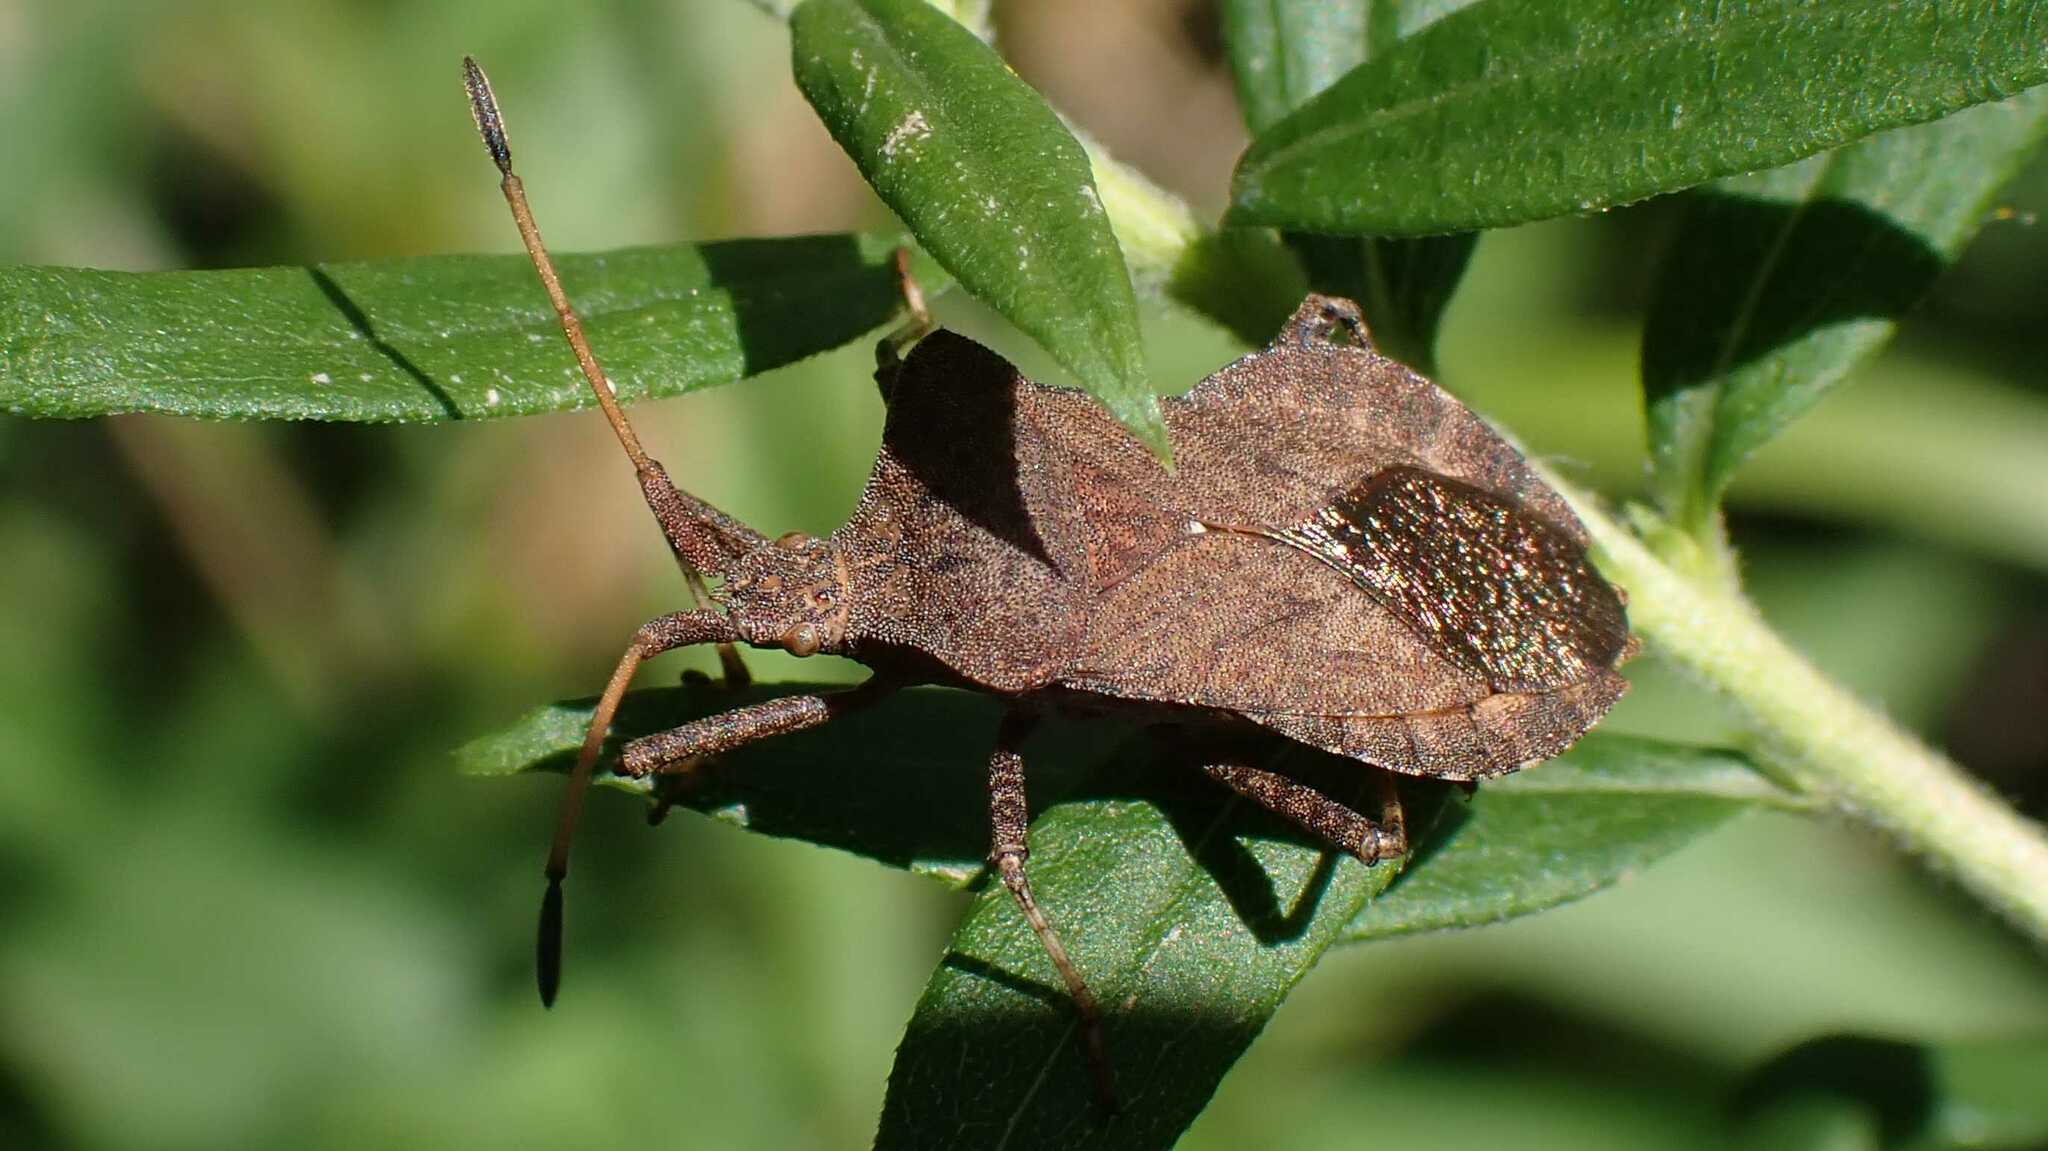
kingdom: Animalia
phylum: Arthropoda
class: Insecta
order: Hemiptera
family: Coreidae
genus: Coreus
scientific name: Coreus marginatus
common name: Dock bug
